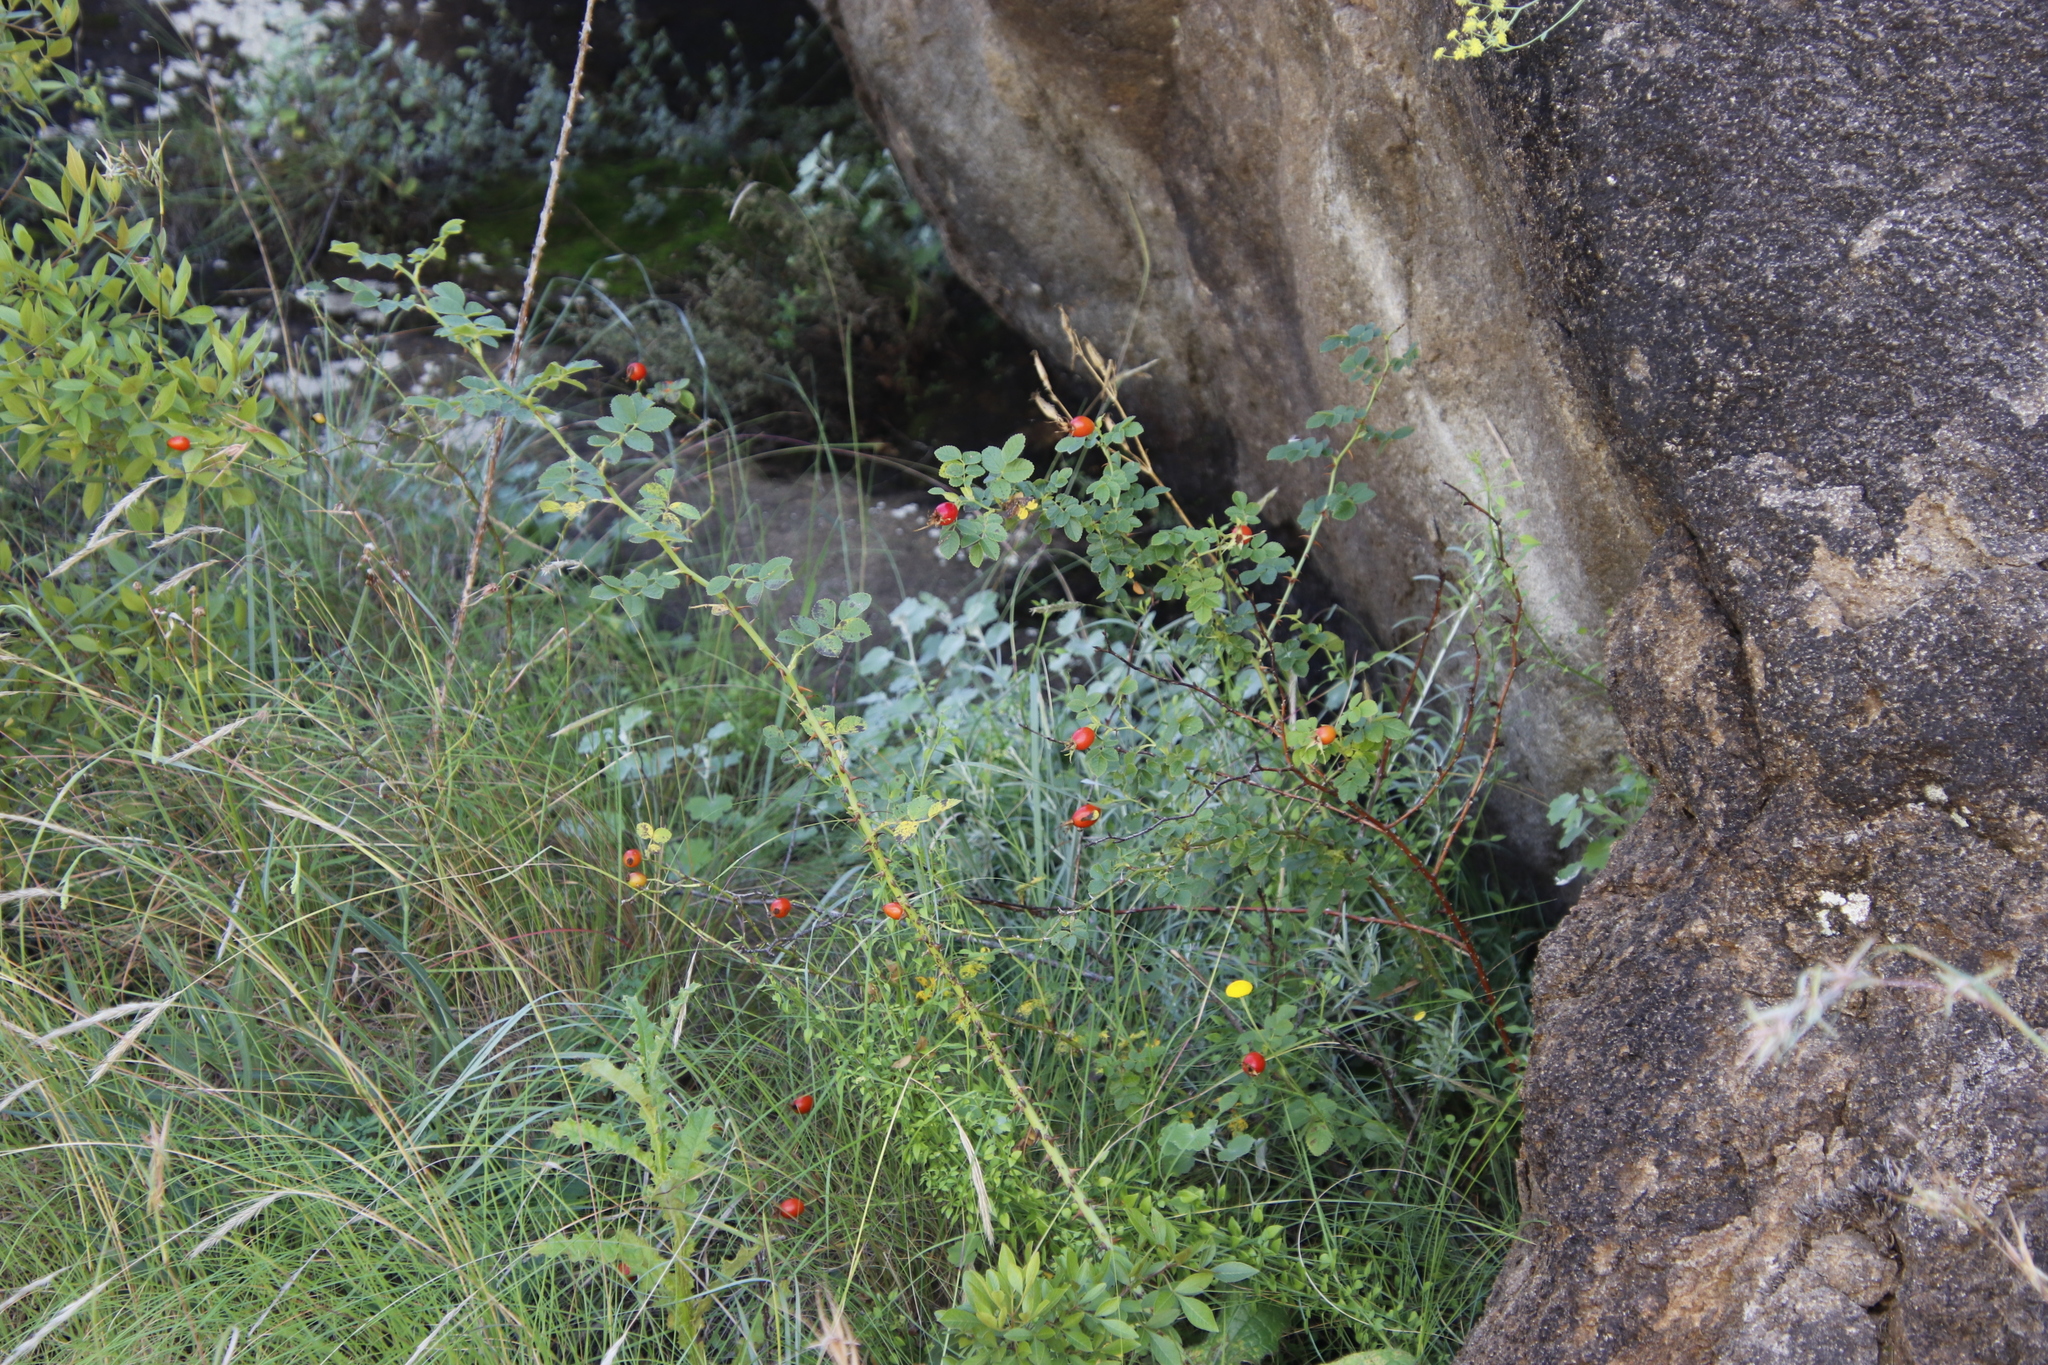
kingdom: Plantae
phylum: Tracheophyta
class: Magnoliopsida
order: Rosales
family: Rosaceae
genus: Rosa
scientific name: Rosa rubiginosa
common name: Sweet-briar
